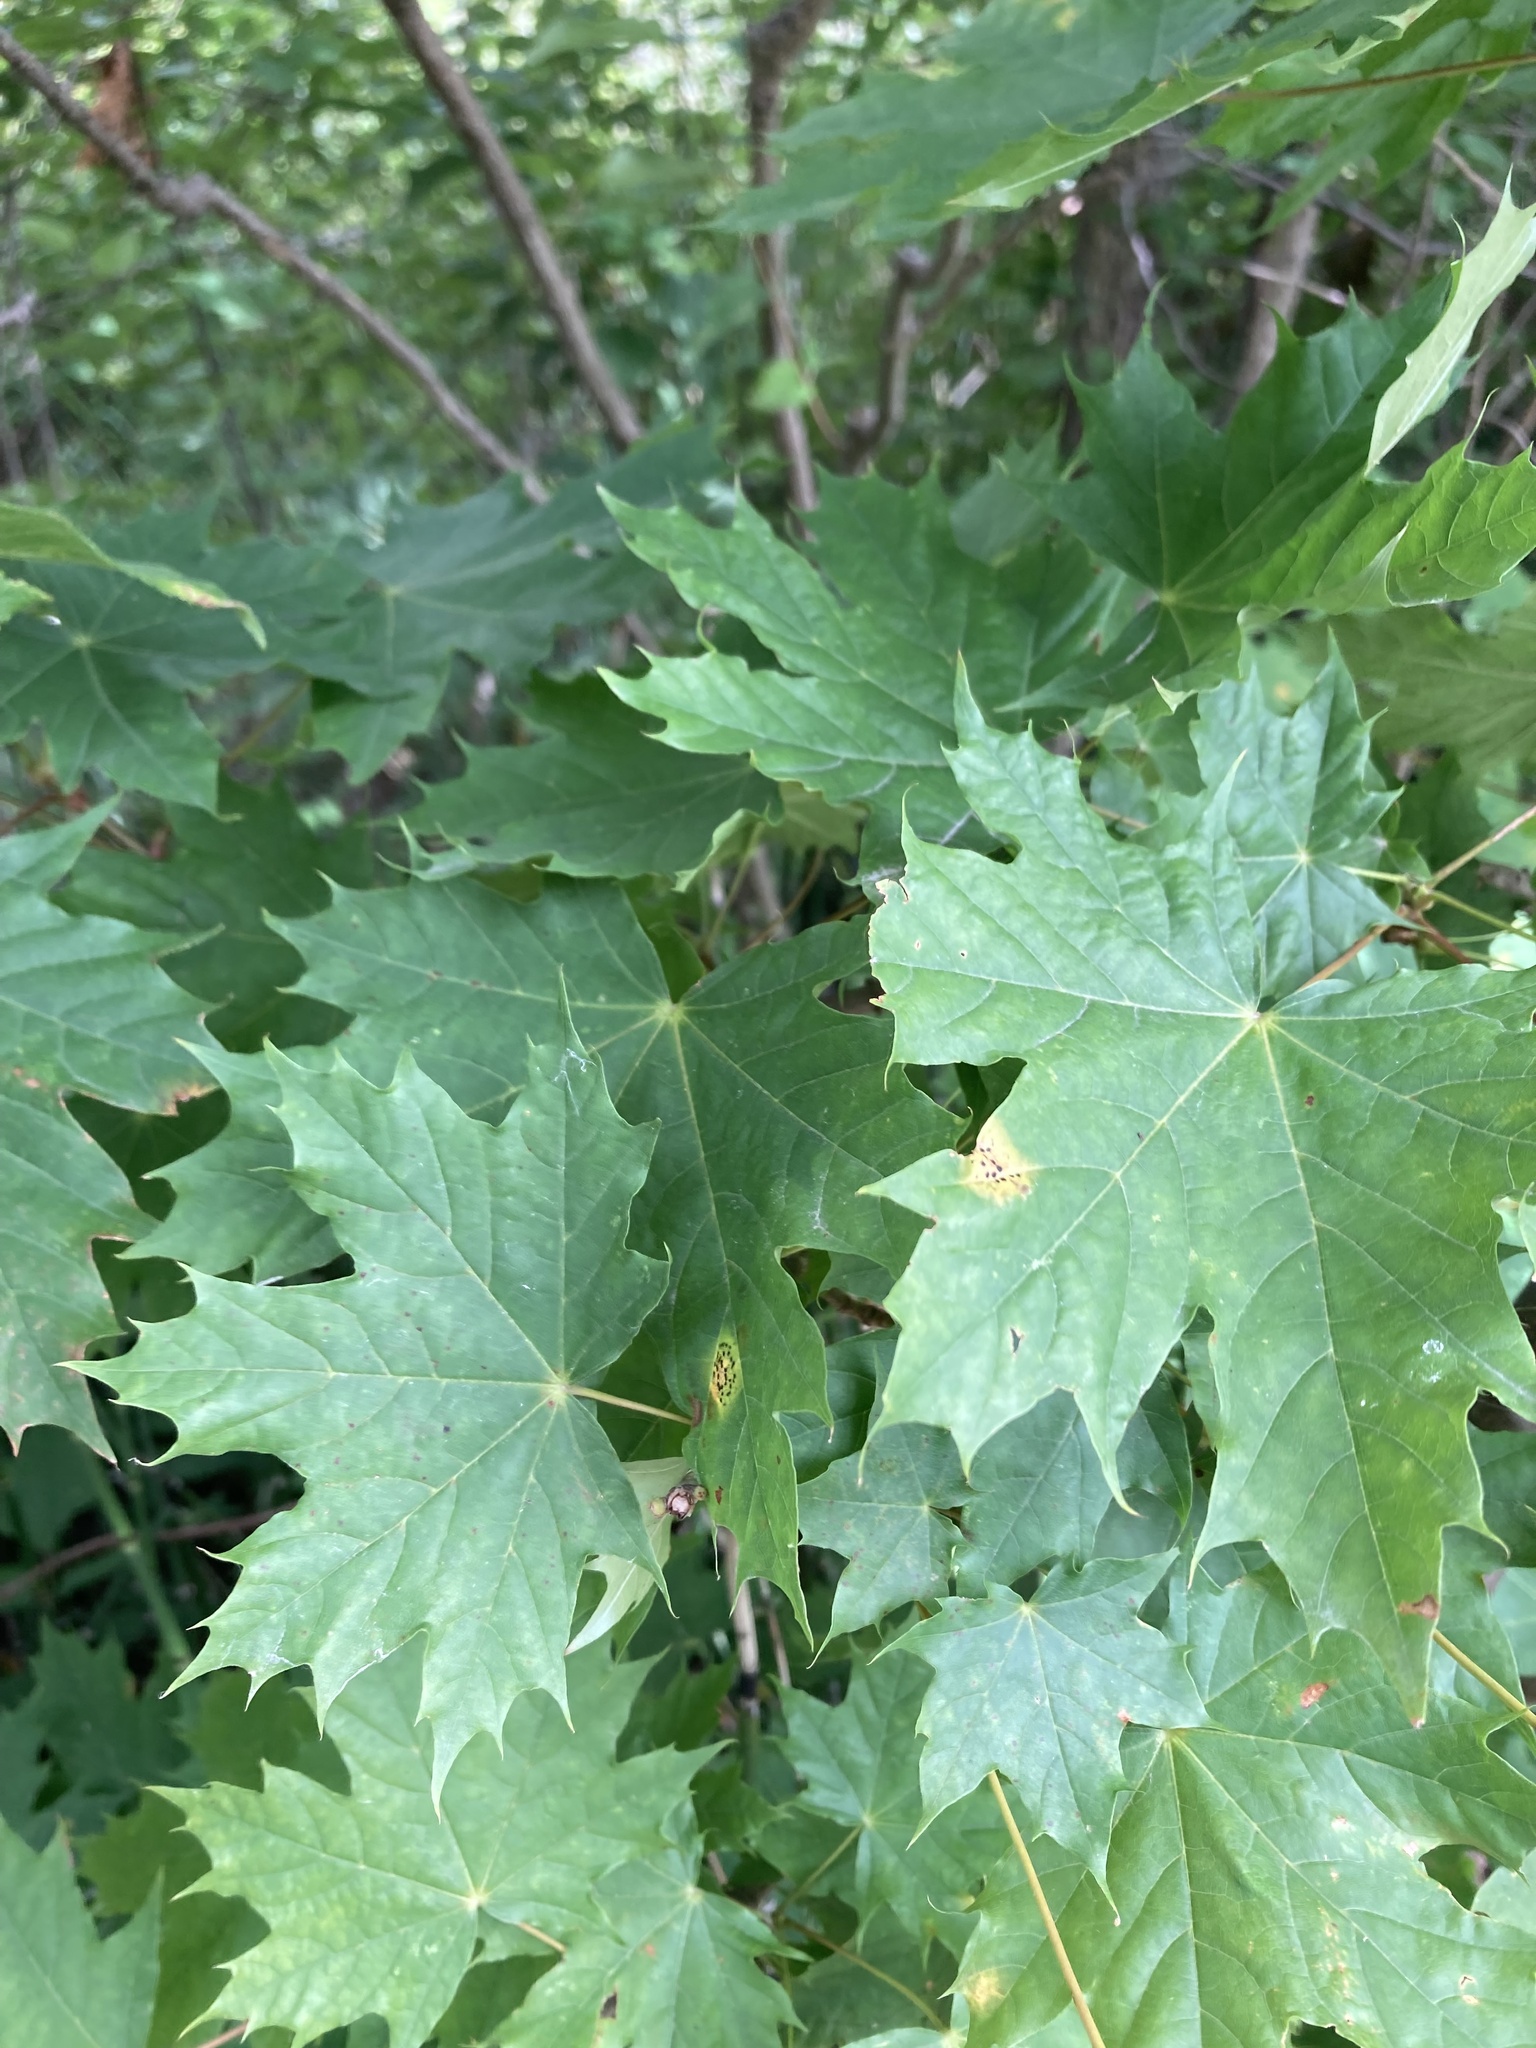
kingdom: Plantae
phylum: Tracheophyta
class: Magnoliopsida
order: Sapindales
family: Sapindaceae
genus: Acer
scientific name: Acer platanoides
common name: Norway maple
